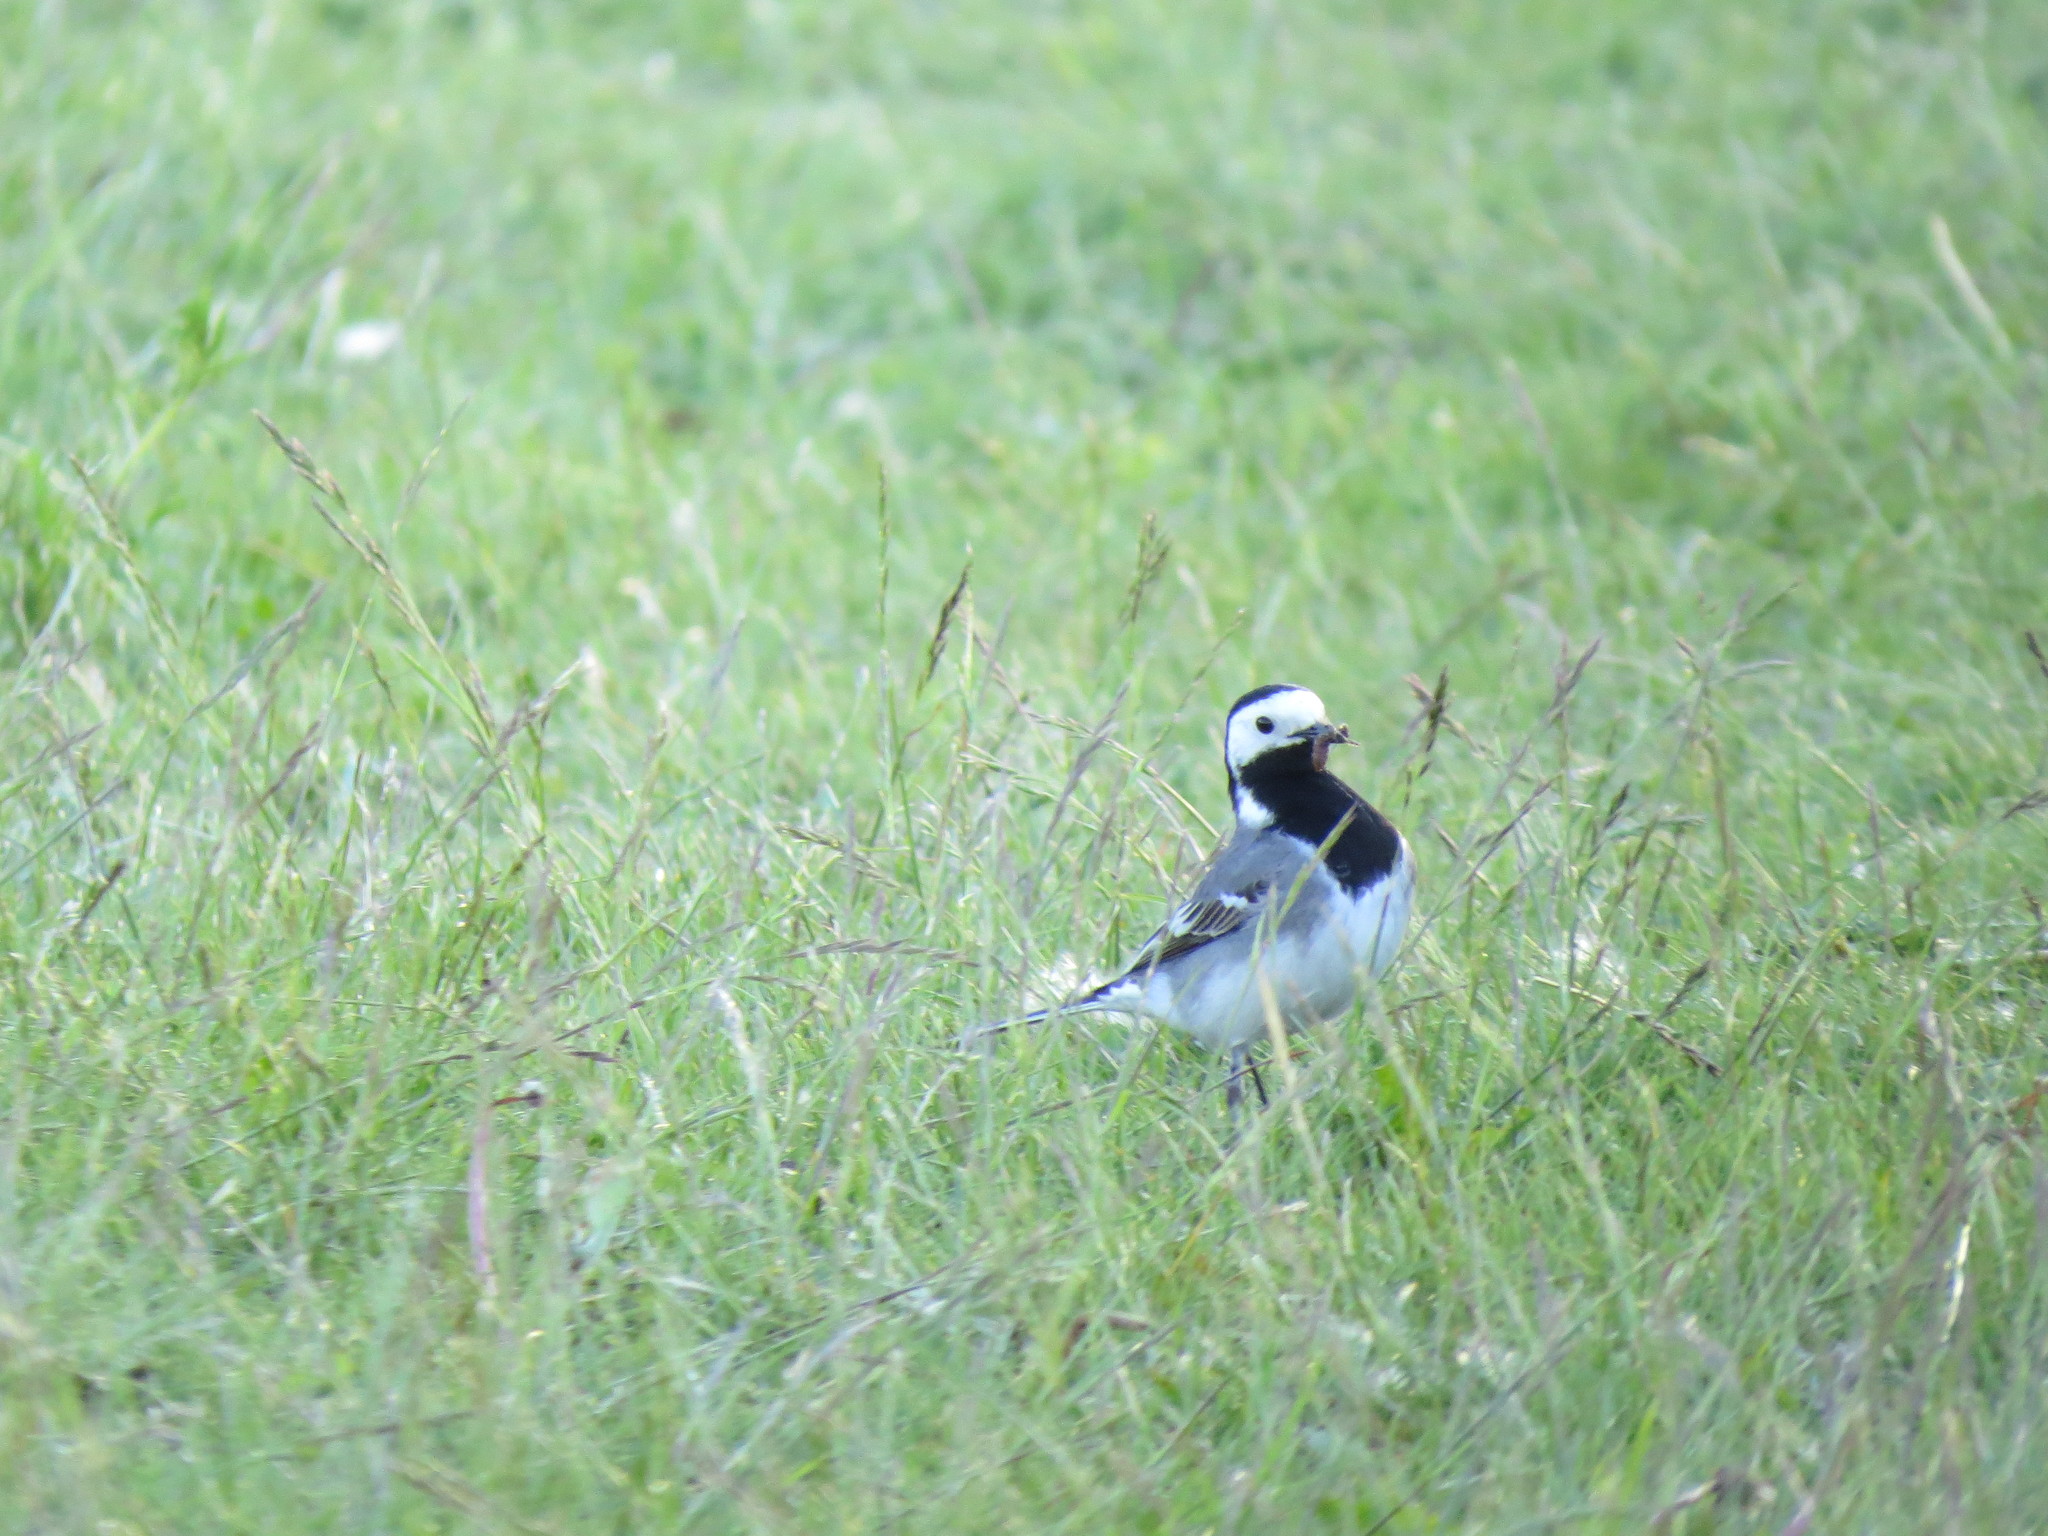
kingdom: Animalia
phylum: Chordata
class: Aves
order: Passeriformes
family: Motacillidae
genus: Motacilla
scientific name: Motacilla alba
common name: White wagtail
